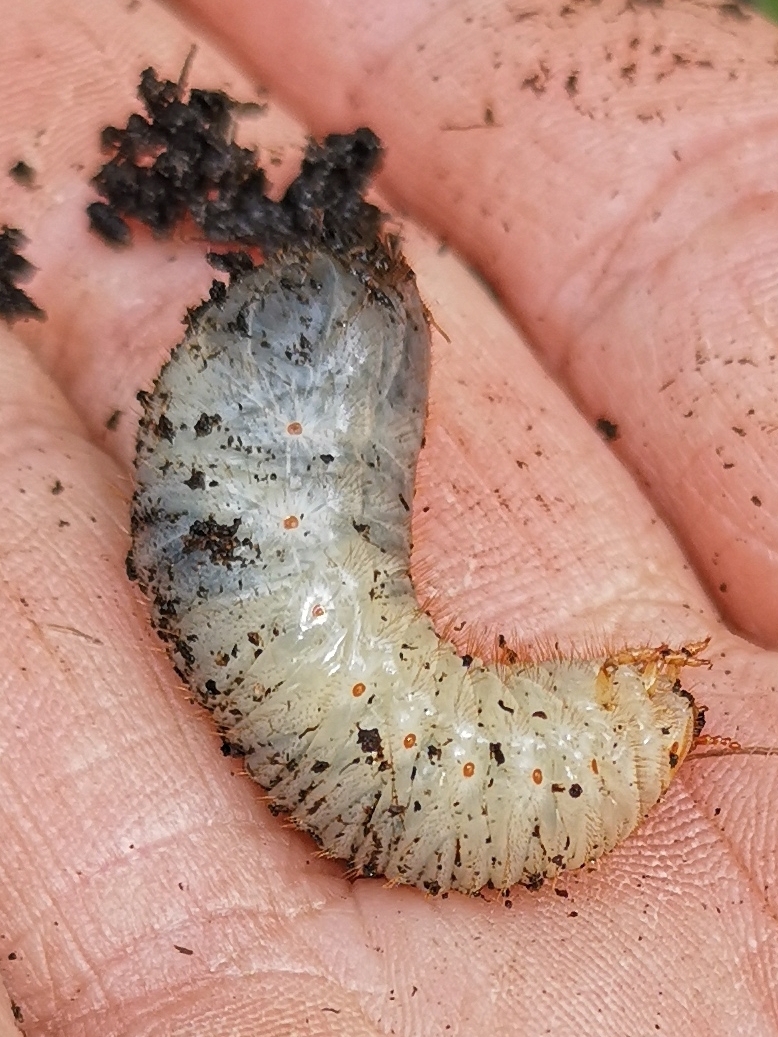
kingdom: Animalia
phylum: Arthropoda
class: Insecta
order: Coleoptera
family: Scarabaeidae
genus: Cetonia
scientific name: Cetonia aurata
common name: Rose chafer
